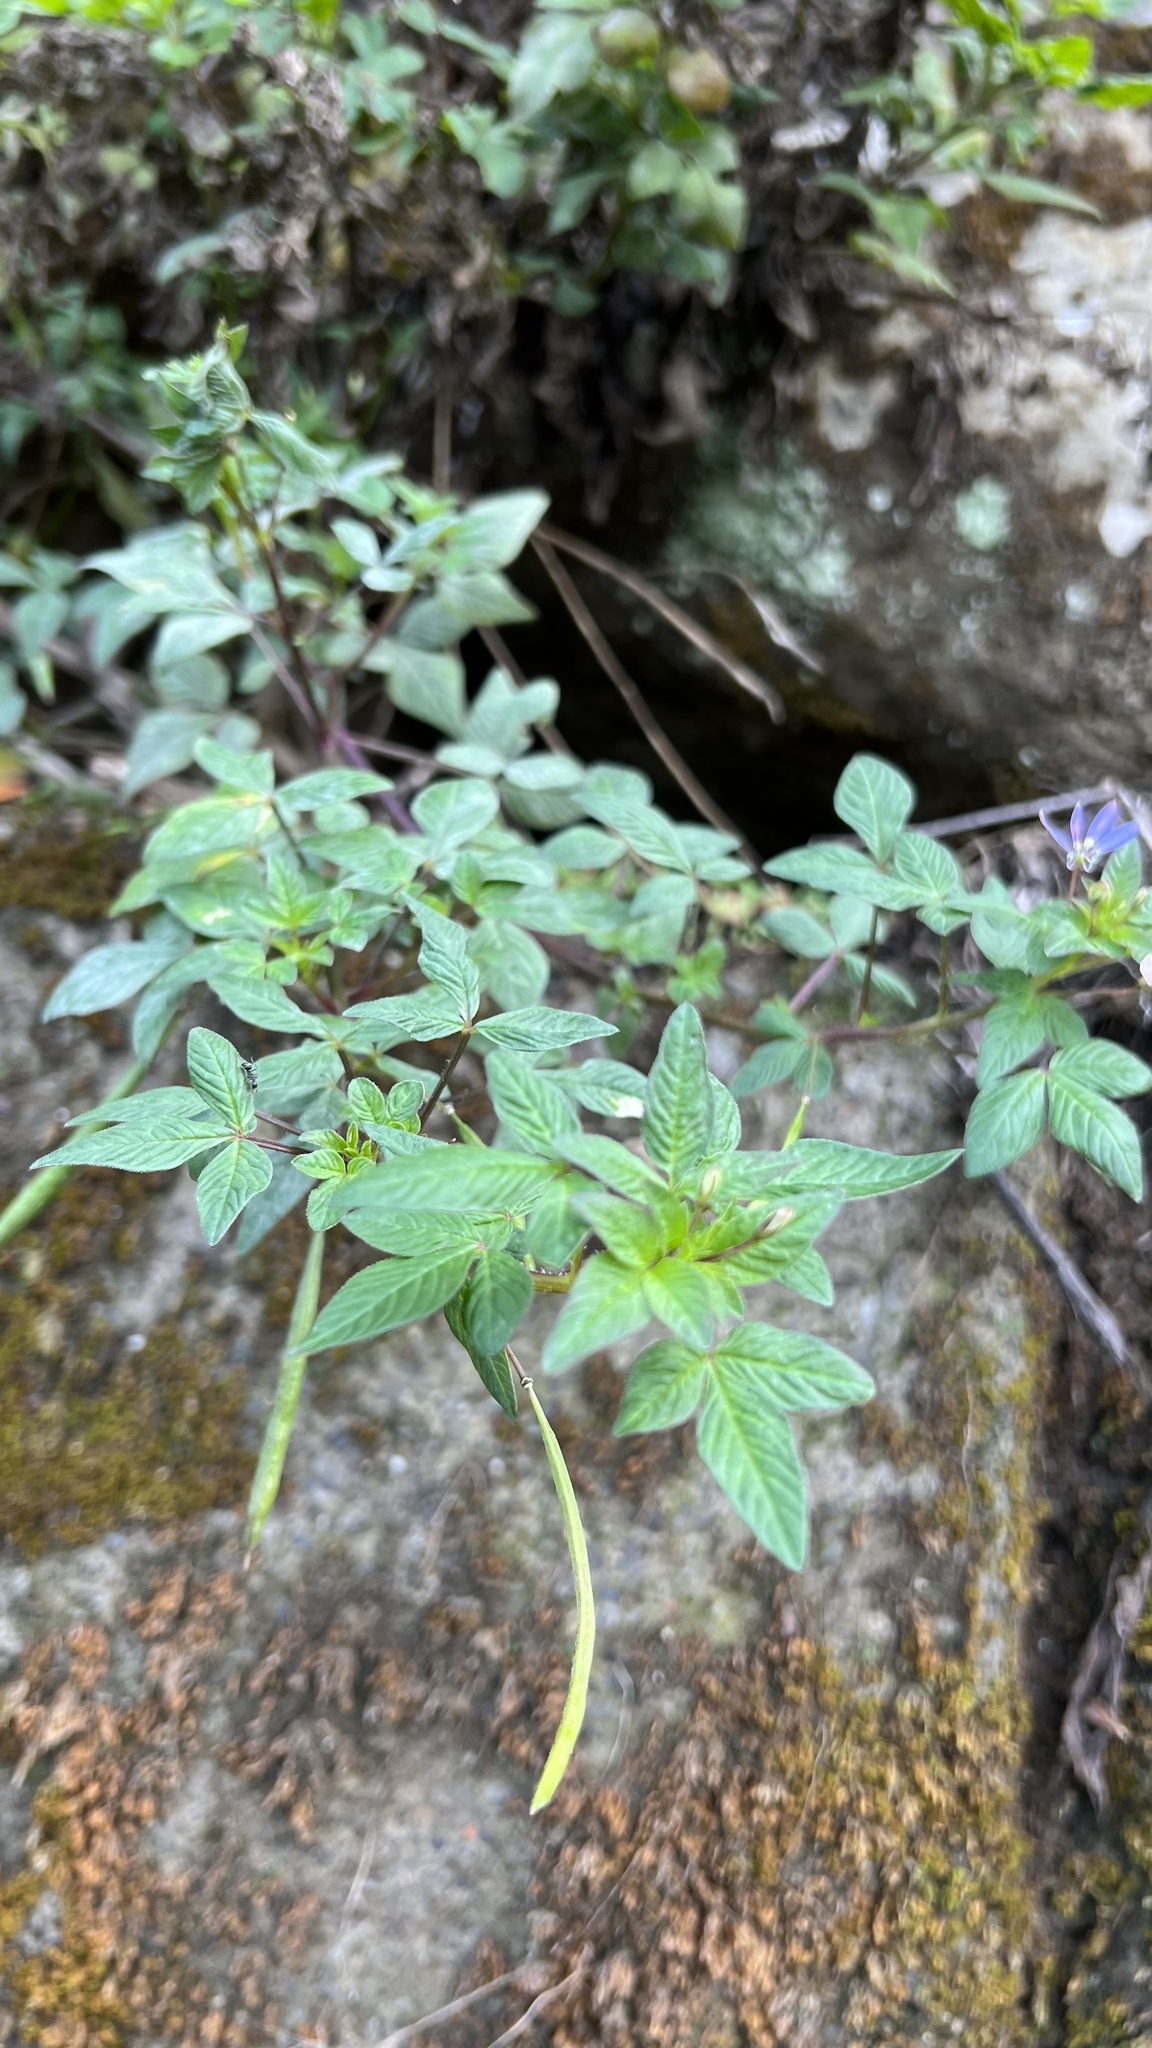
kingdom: Plantae
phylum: Tracheophyta
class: Magnoliopsida
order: Brassicales
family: Cleomaceae
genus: Sieruela
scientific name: Sieruela rutidosperma
